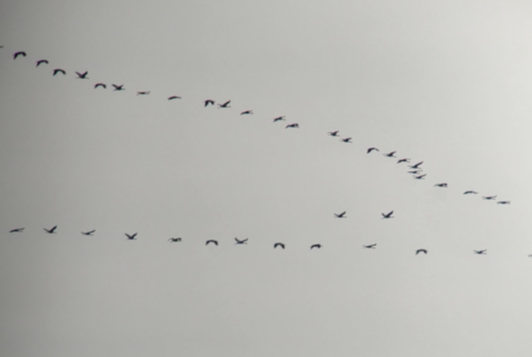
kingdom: Animalia
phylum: Chordata
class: Aves
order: Gruiformes
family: Gruidae
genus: Grus
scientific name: Grus grus
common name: Common crane
